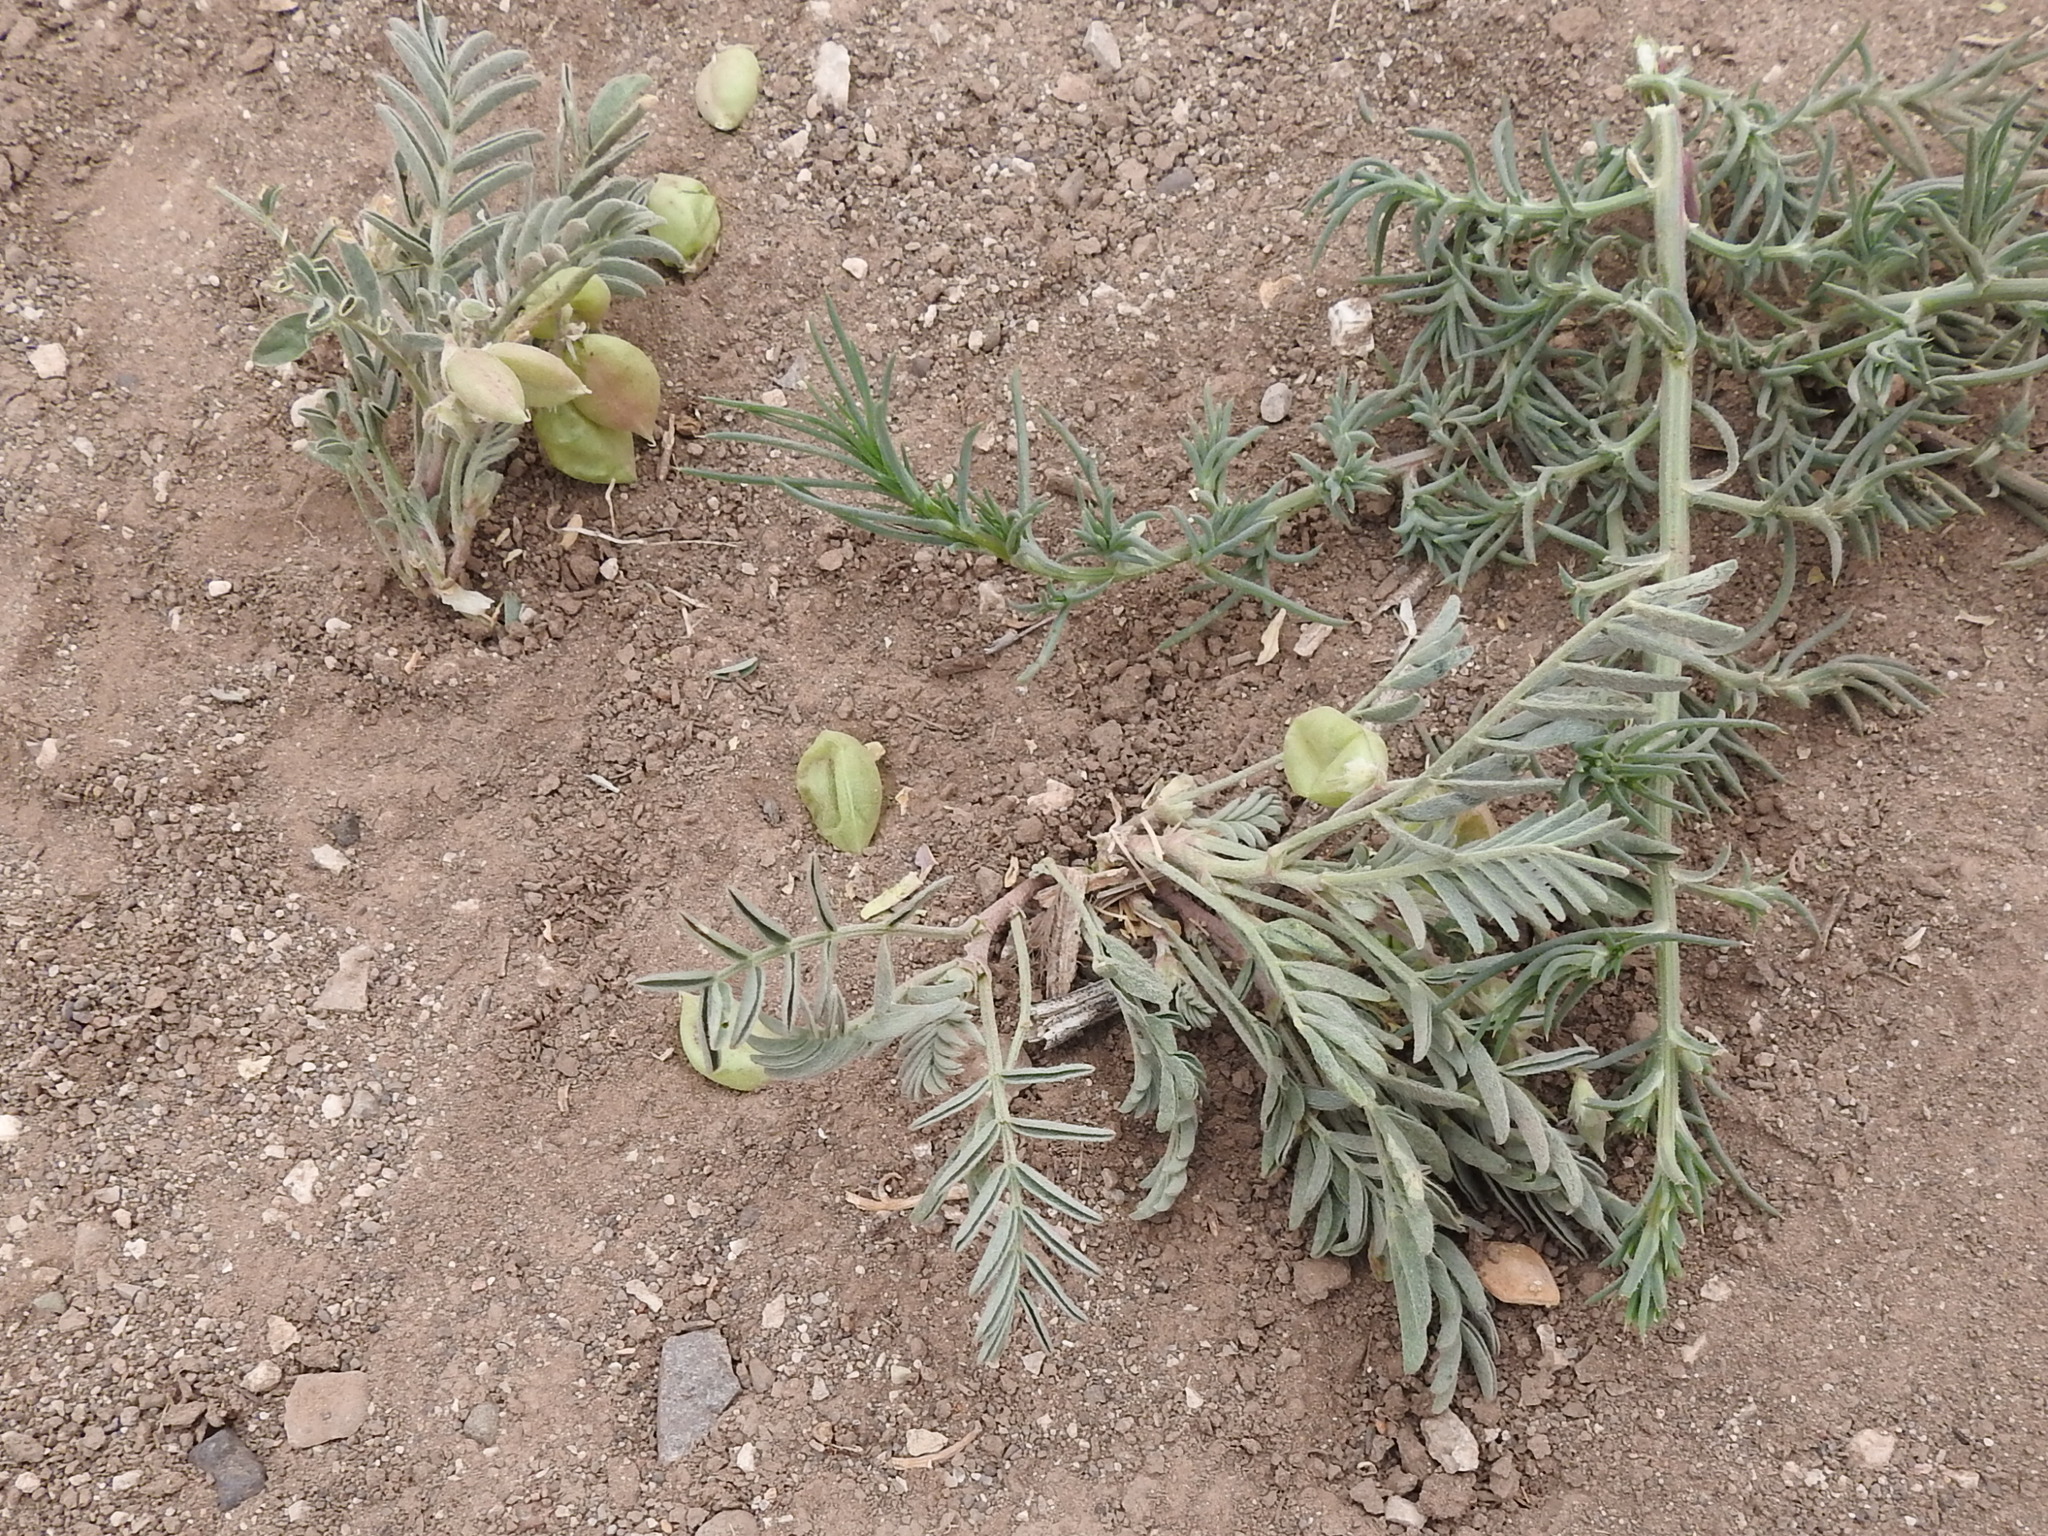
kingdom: Plantae
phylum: Tracheophyta
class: Magnoliopsida
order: Fabales
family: Fabaceae
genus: Astragalus
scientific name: Astragalus wootonii
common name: Wooton's milk-vetch
